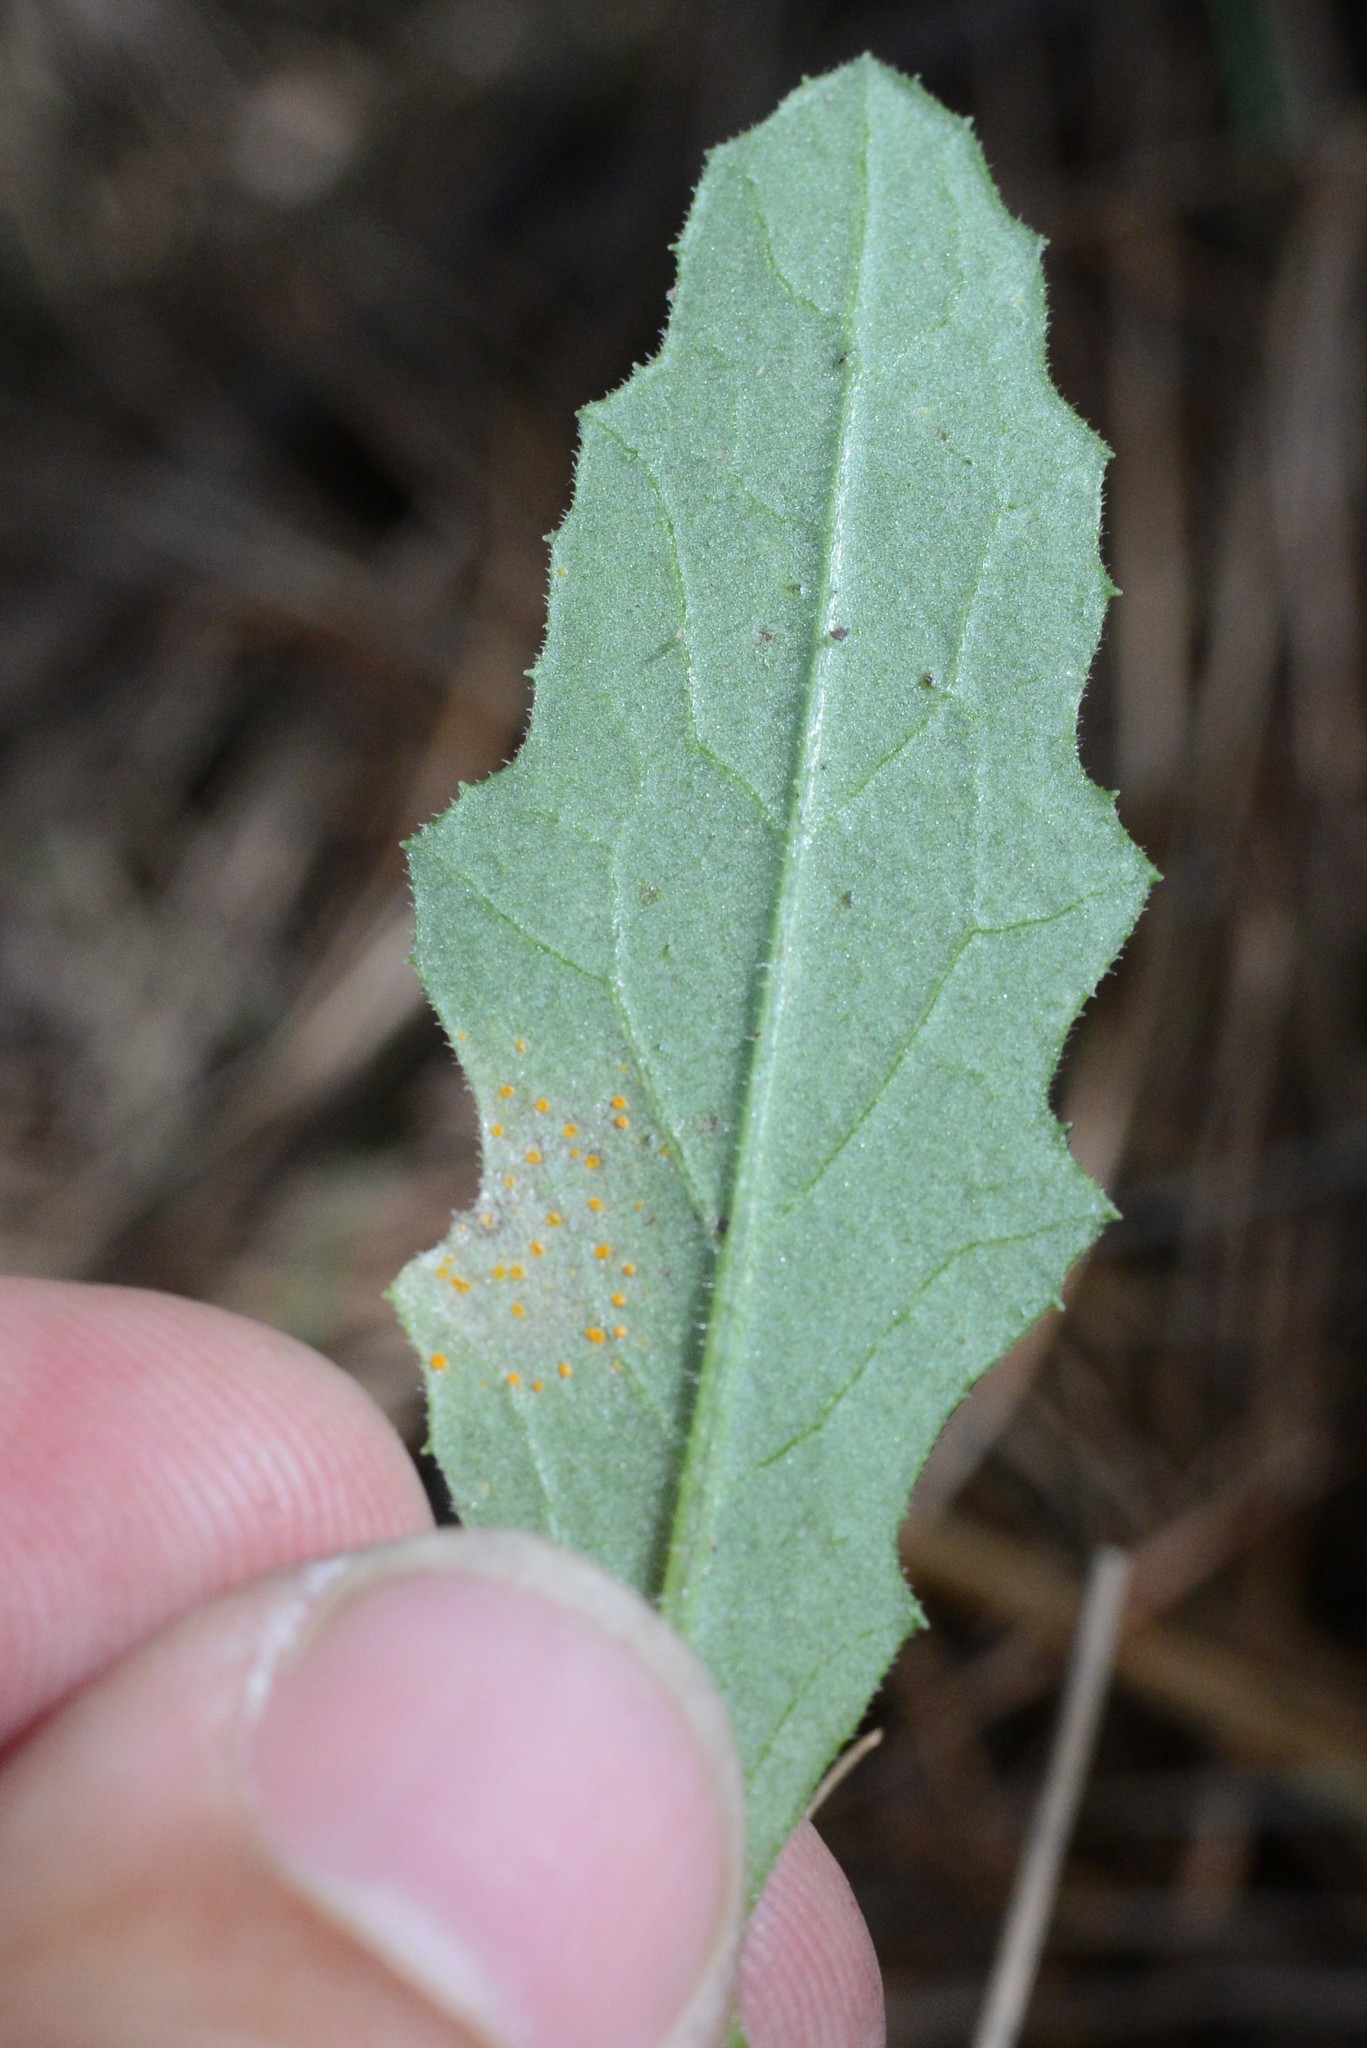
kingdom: Fungi
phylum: Basidiomycota
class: Pucciniomycetes
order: Pucciniales
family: Coleosporiaceae
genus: Coleosporium
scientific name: Coleosporium tussilaginis
